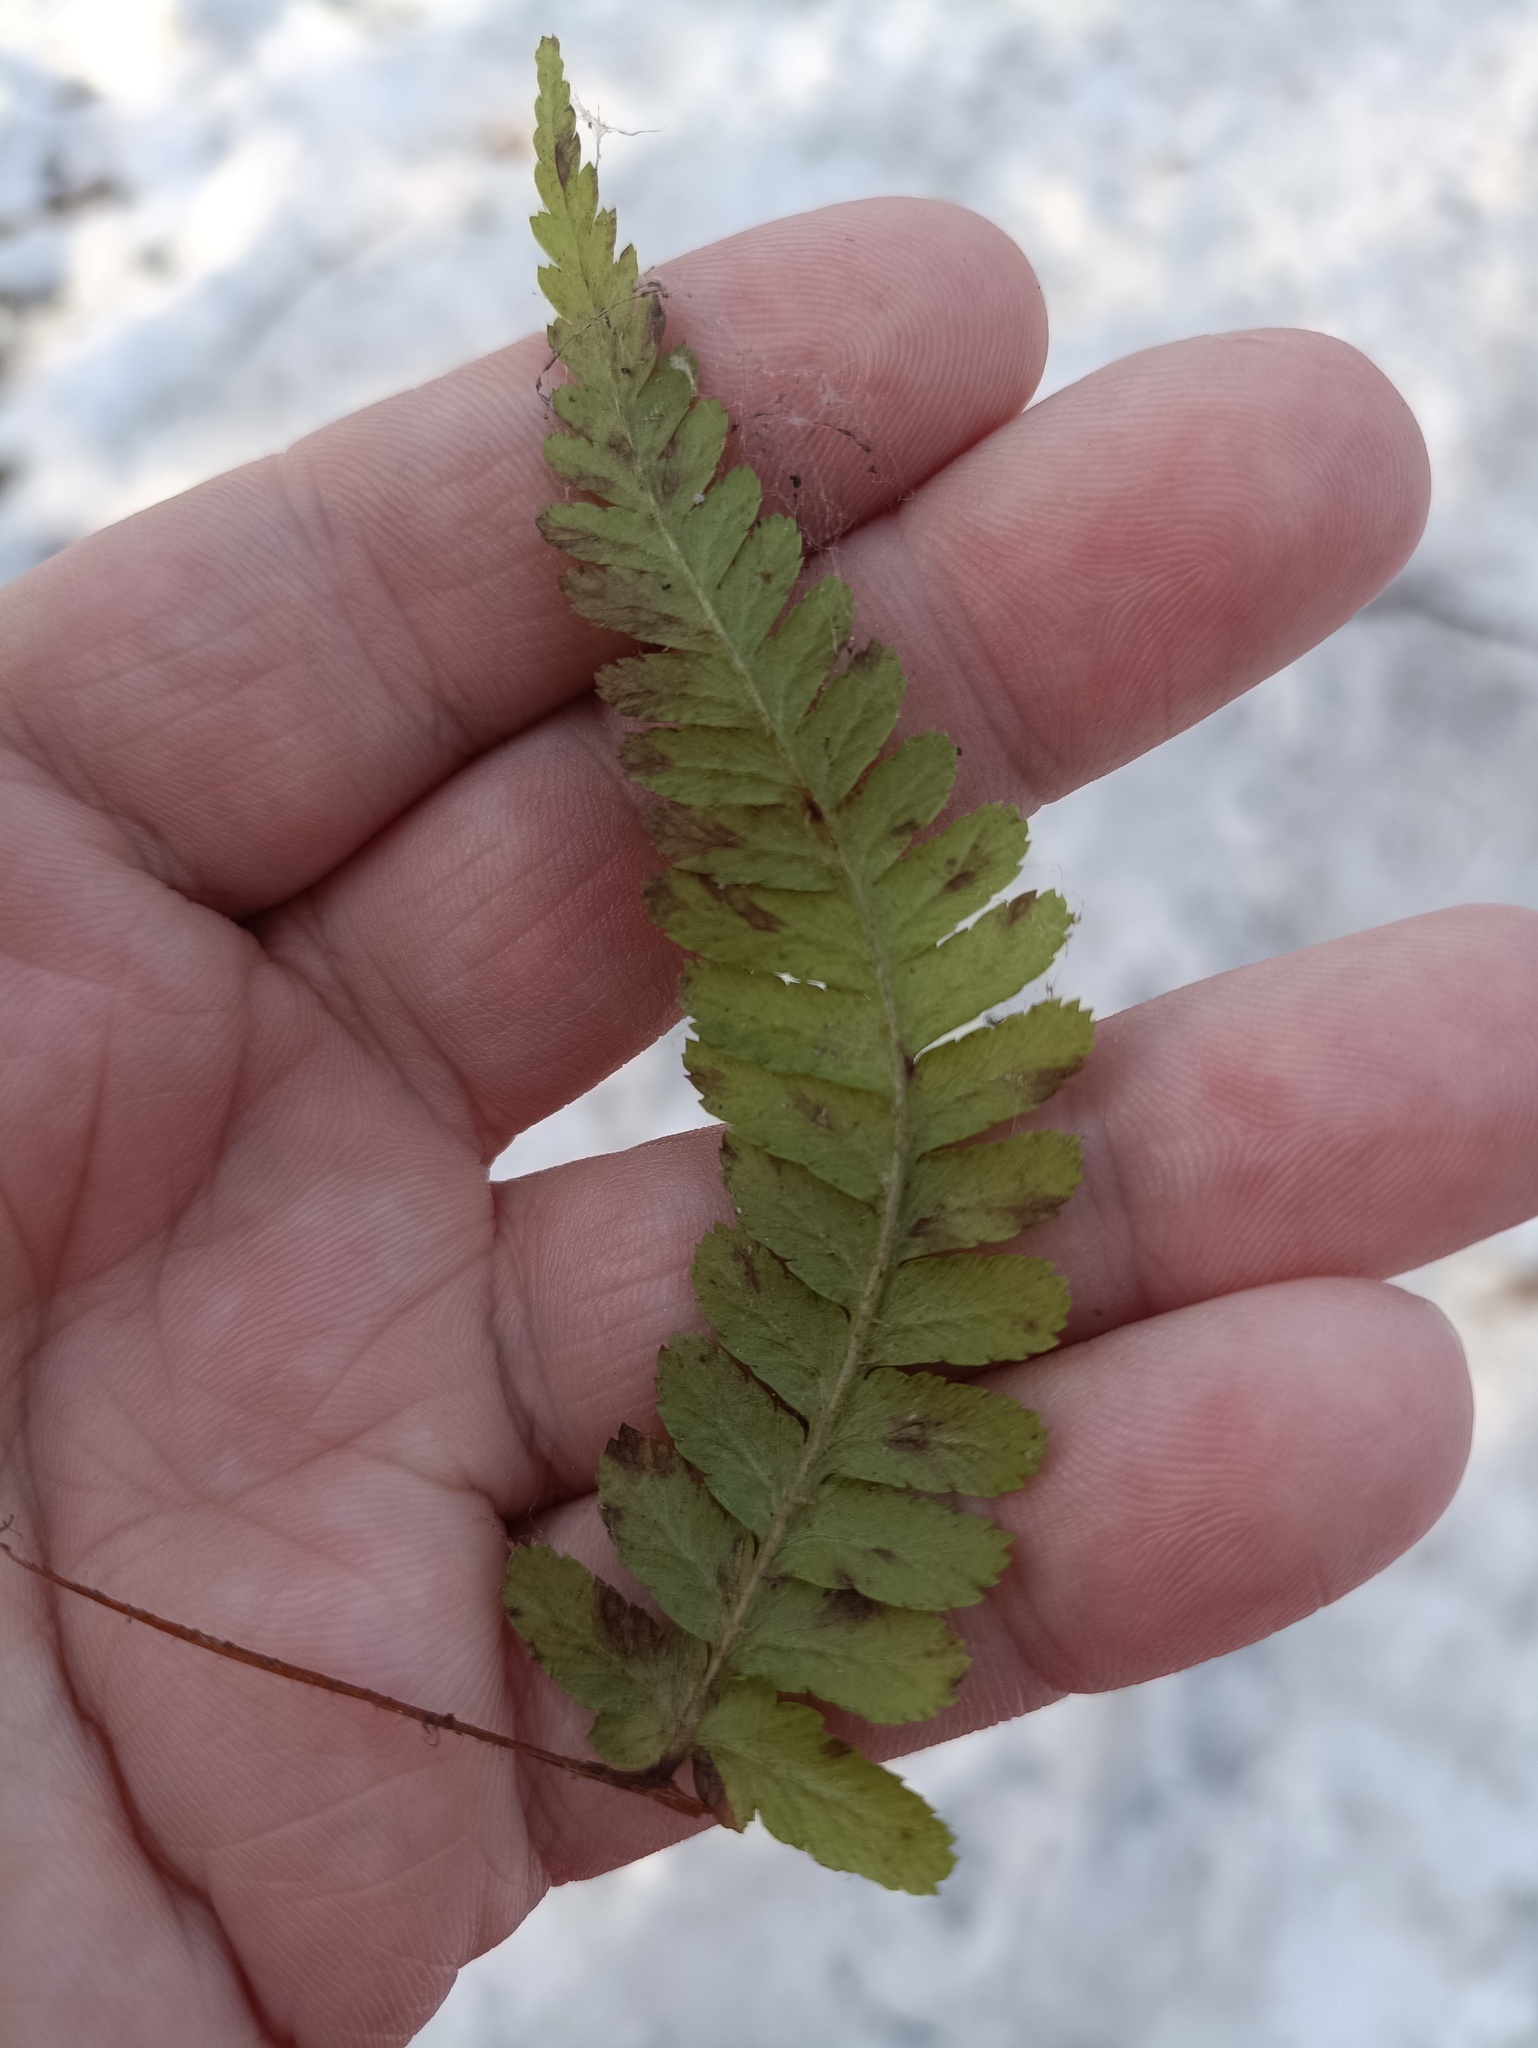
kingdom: Plantae
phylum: Tracheophyta
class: Polypodiopsida
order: Polypodiales
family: Dryopteridaceae
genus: Dryopteris
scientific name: Dryopteris filix-mas
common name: Male fern
